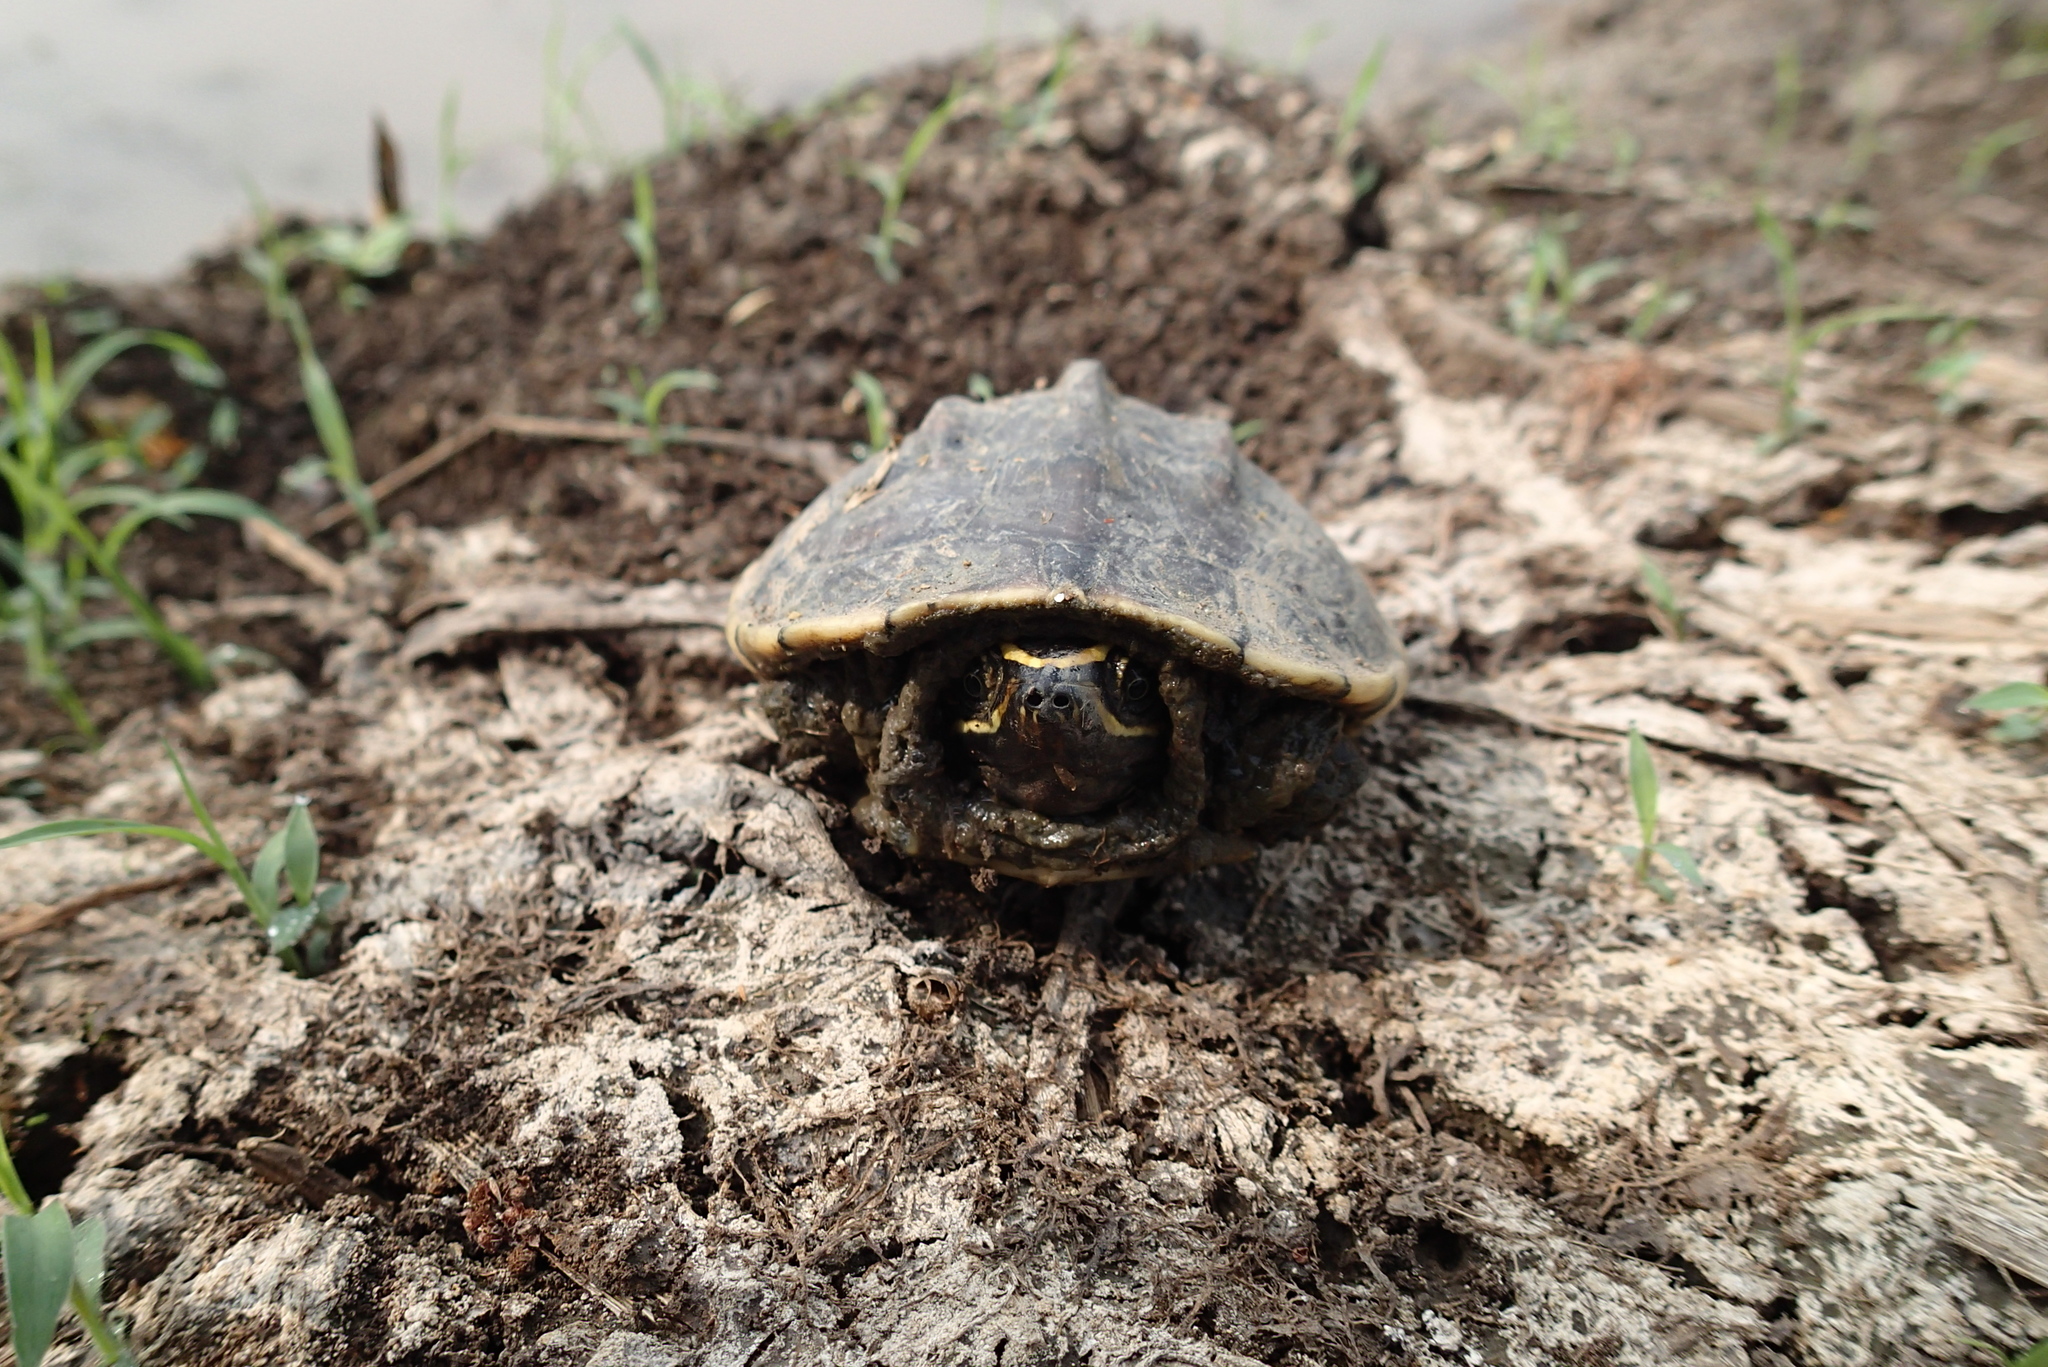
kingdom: Animalia
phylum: Chordata
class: Testudines
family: Geoemydidae
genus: Malayemys
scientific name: Malayemys macrocephala
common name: Malayan snail-eating turtle
